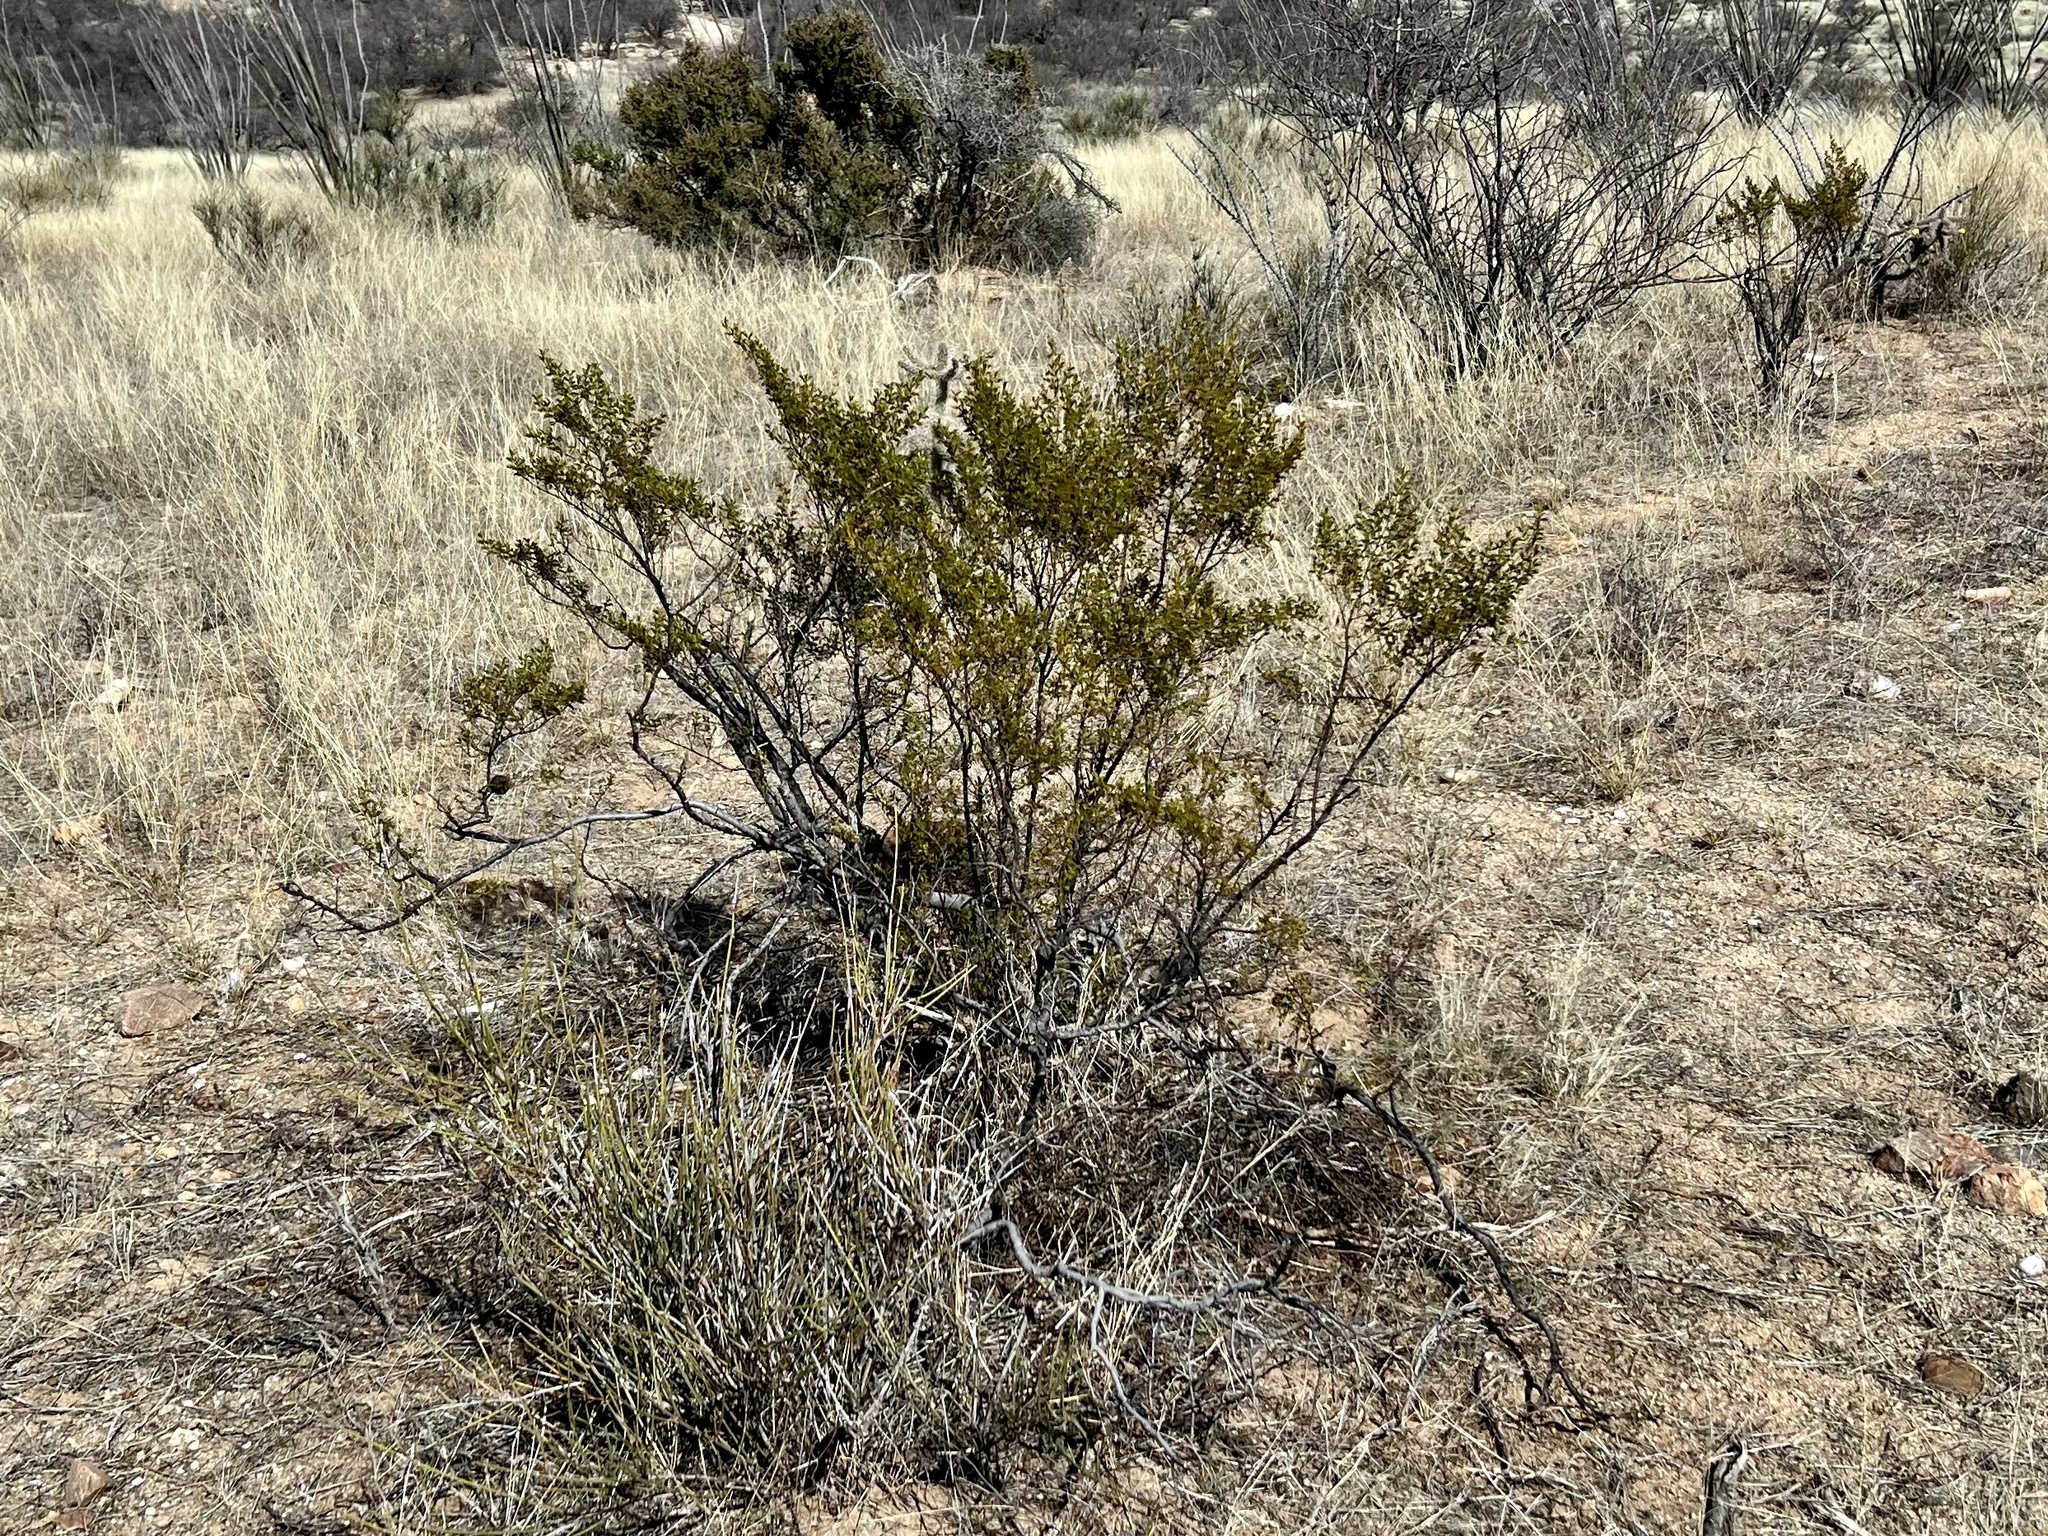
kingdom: Plantae
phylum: Tracheophyta
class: Magnoliopsida
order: Zygophyllales
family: Zygophyllaceae
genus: Larrea
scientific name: Larrea tridentata
